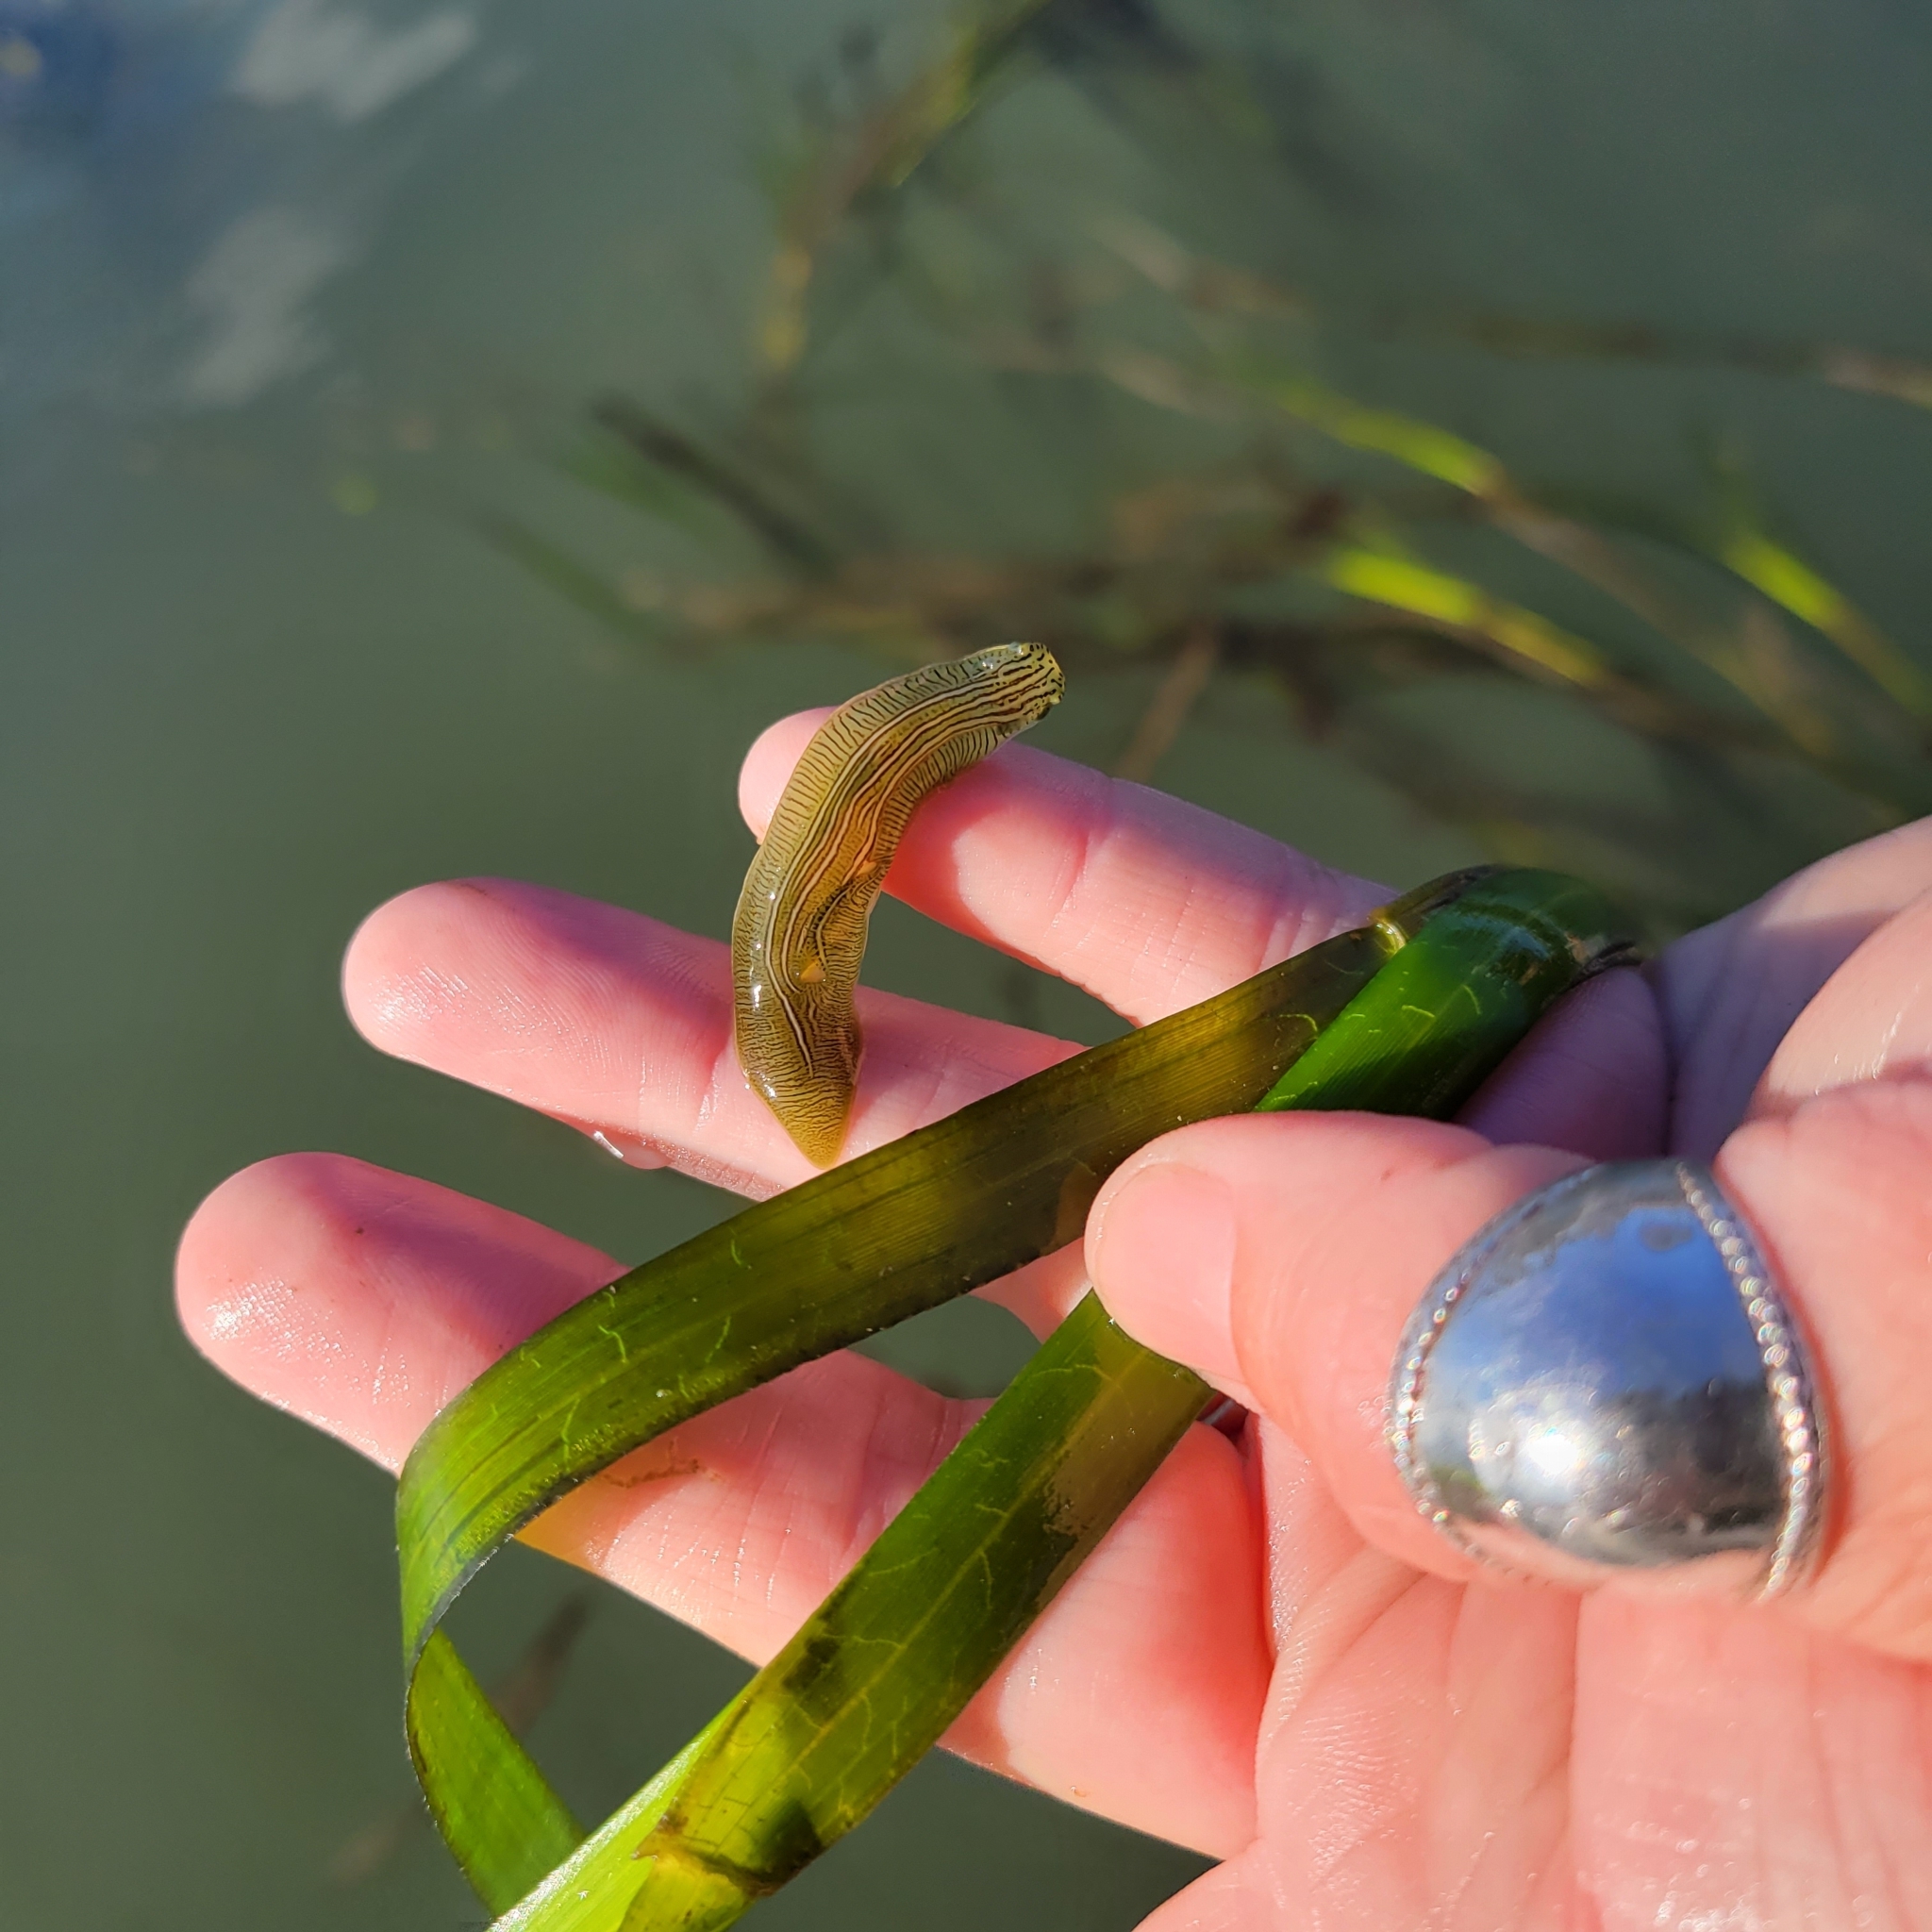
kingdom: Animalia
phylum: Mollusca
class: Gastropoda
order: Aplysiida
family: Aplysiidae
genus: Phyllaplysia
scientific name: Phyllaplysia taylori
